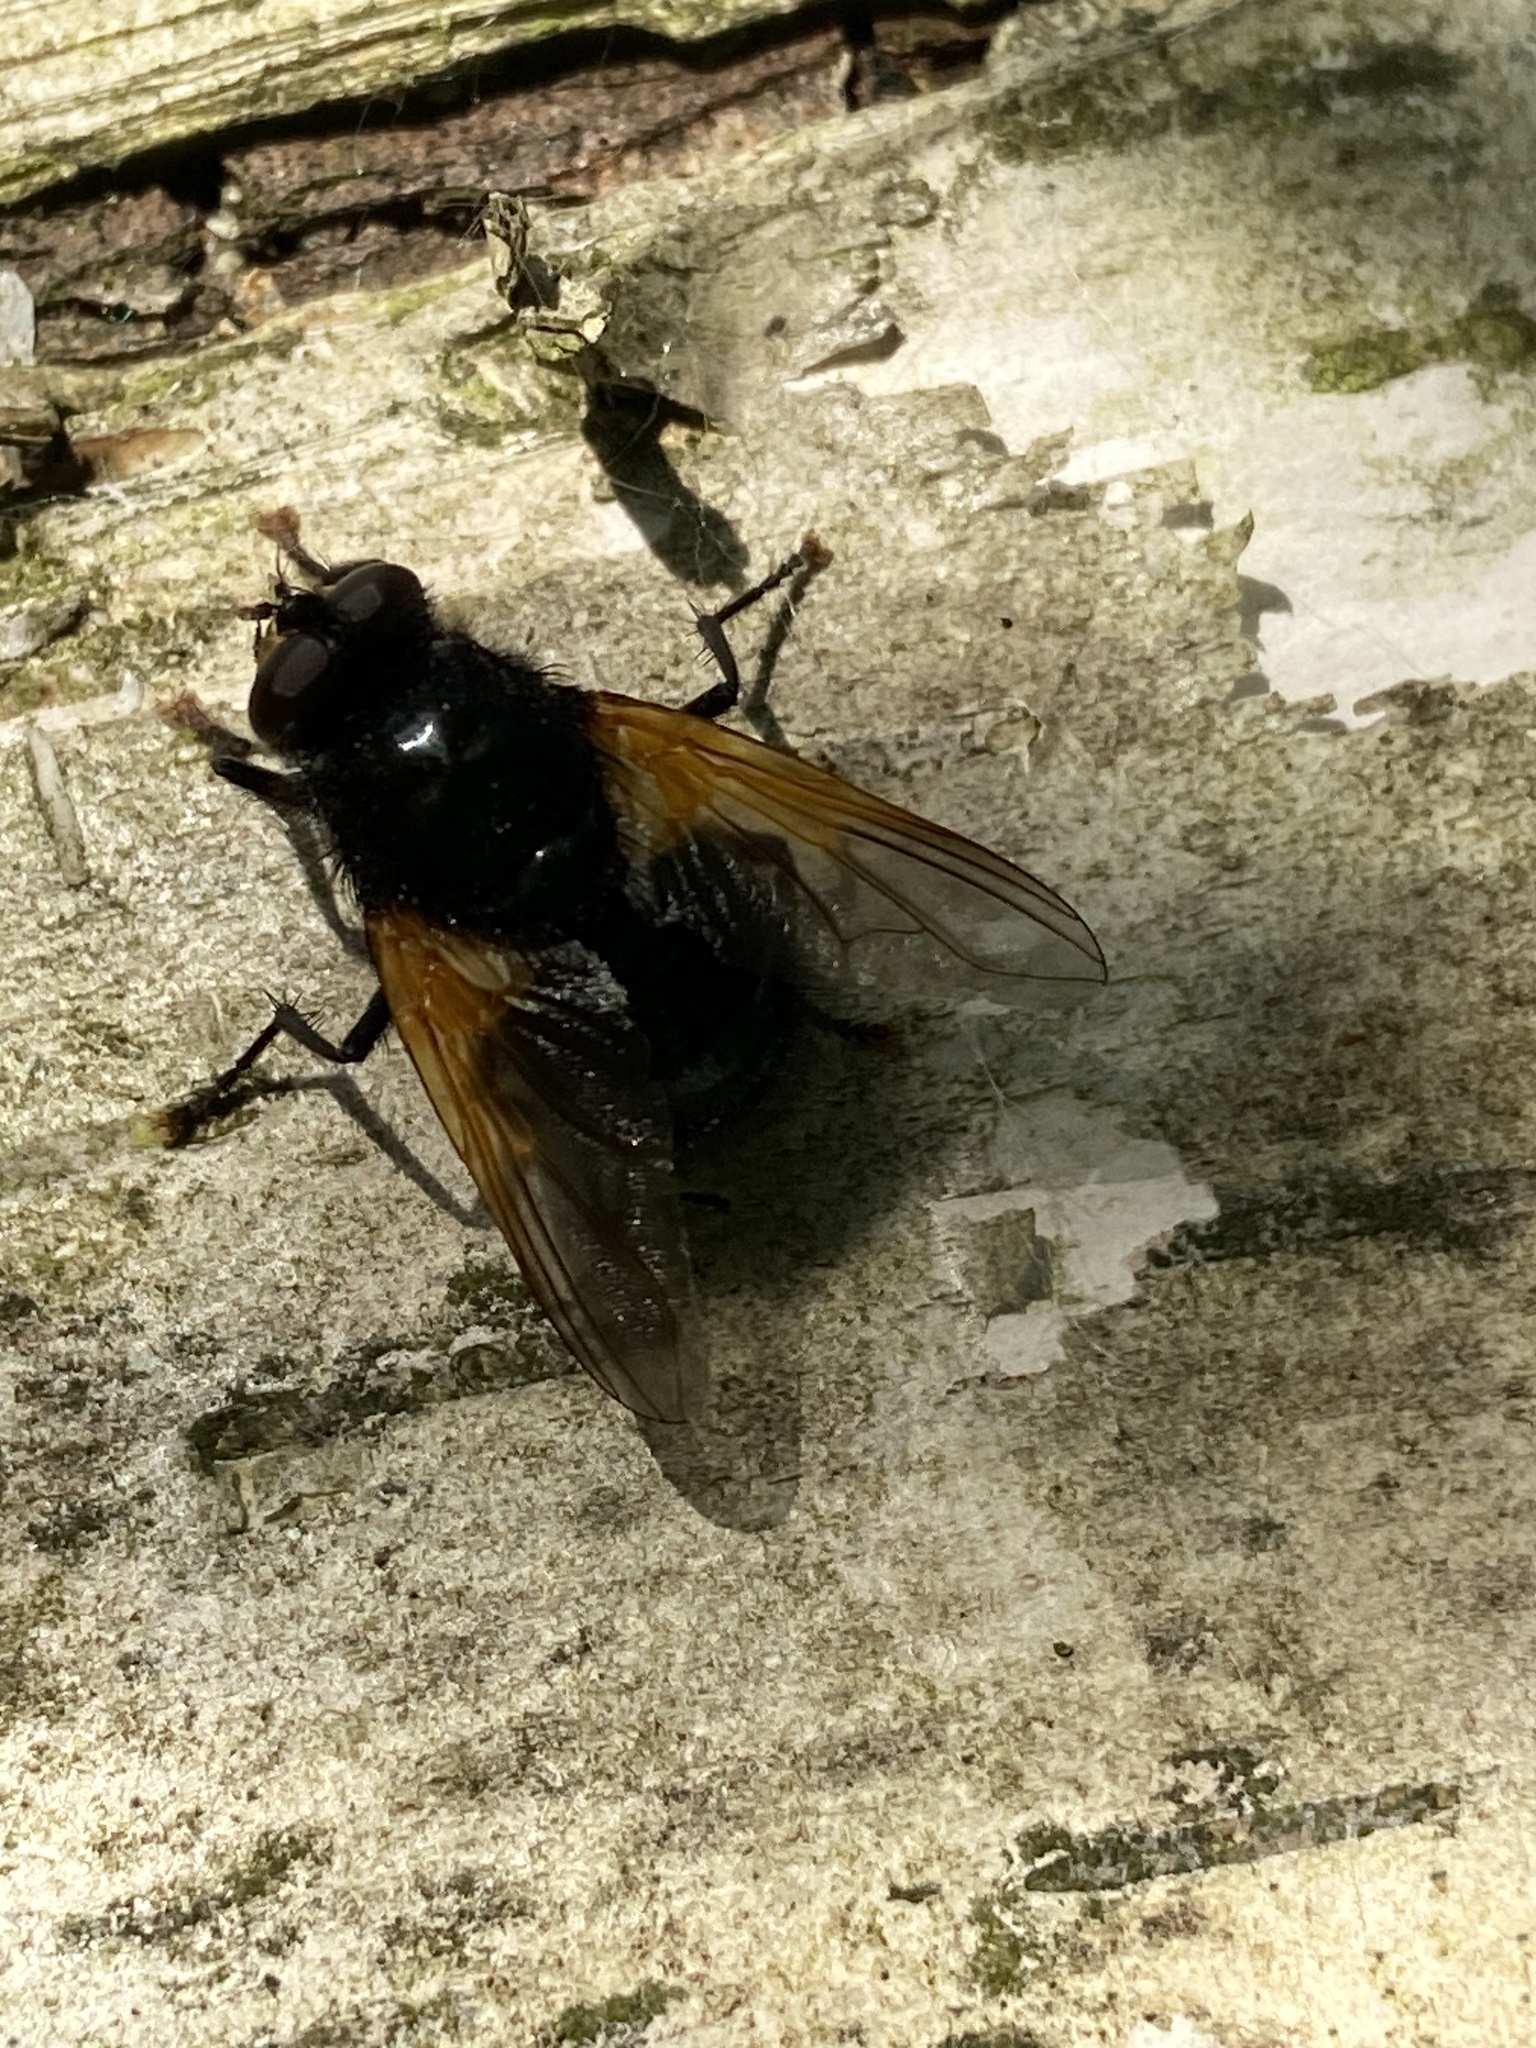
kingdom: Animalia
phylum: Arthropoda
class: Insecta
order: Diptera
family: Muscidae
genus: Mesembrina
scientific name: Mesembrina meridiana
